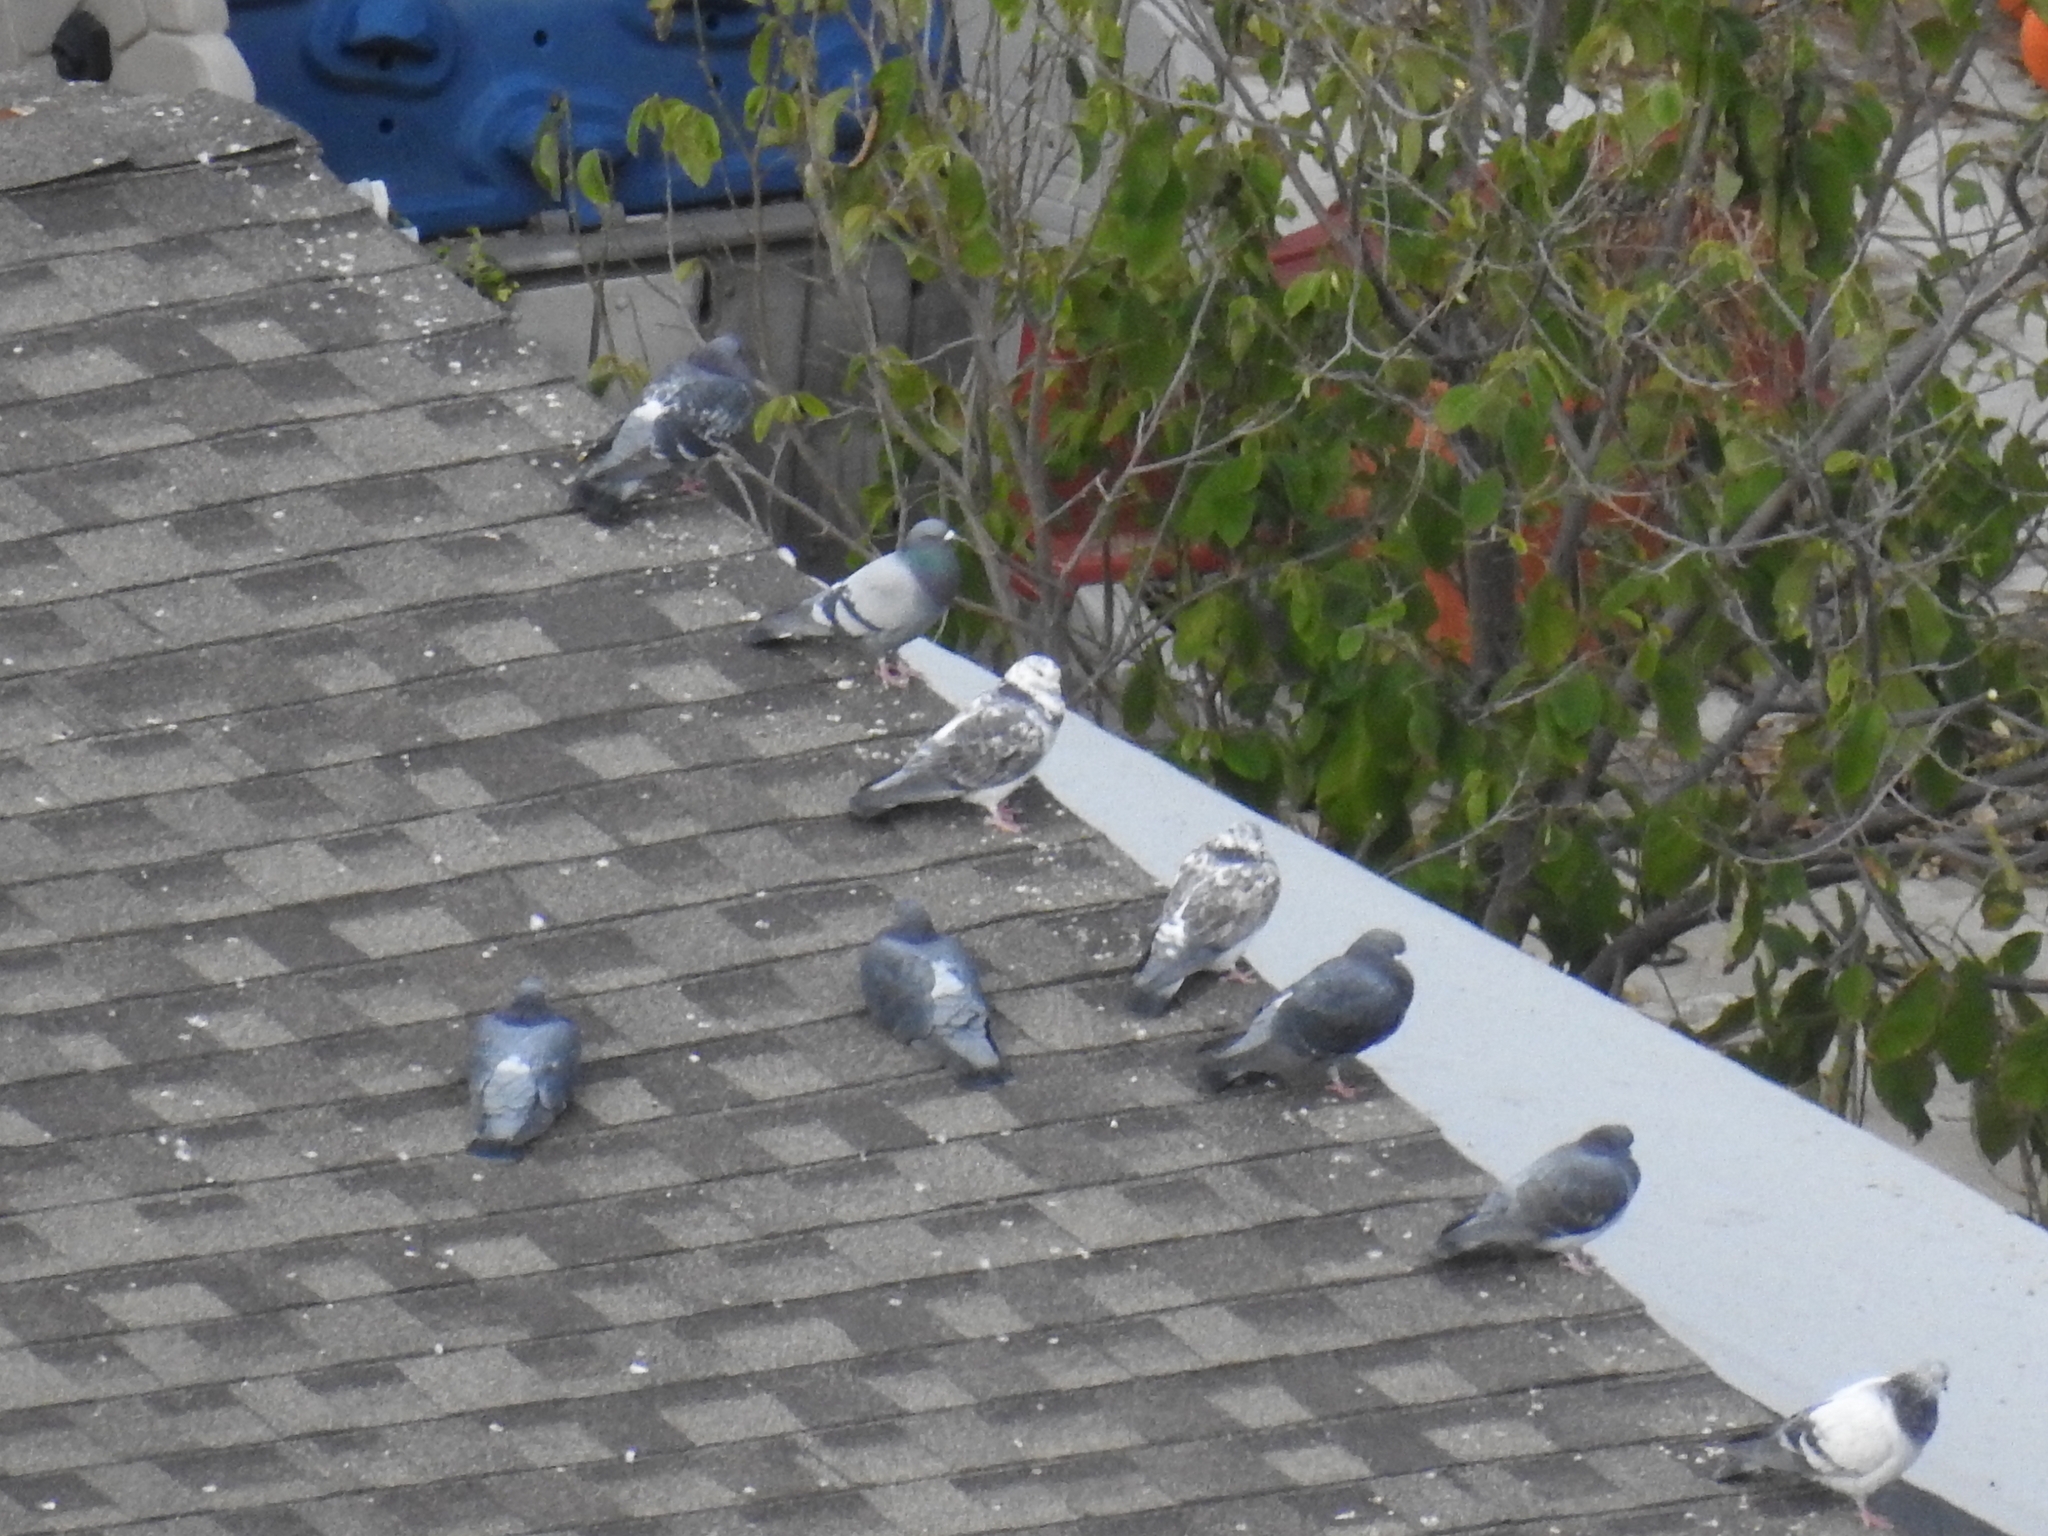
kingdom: Animalia
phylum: Chordata
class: Aves
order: Columbiformes
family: Columbidae
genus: Columba
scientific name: Columba livia
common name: Rock pigeon
